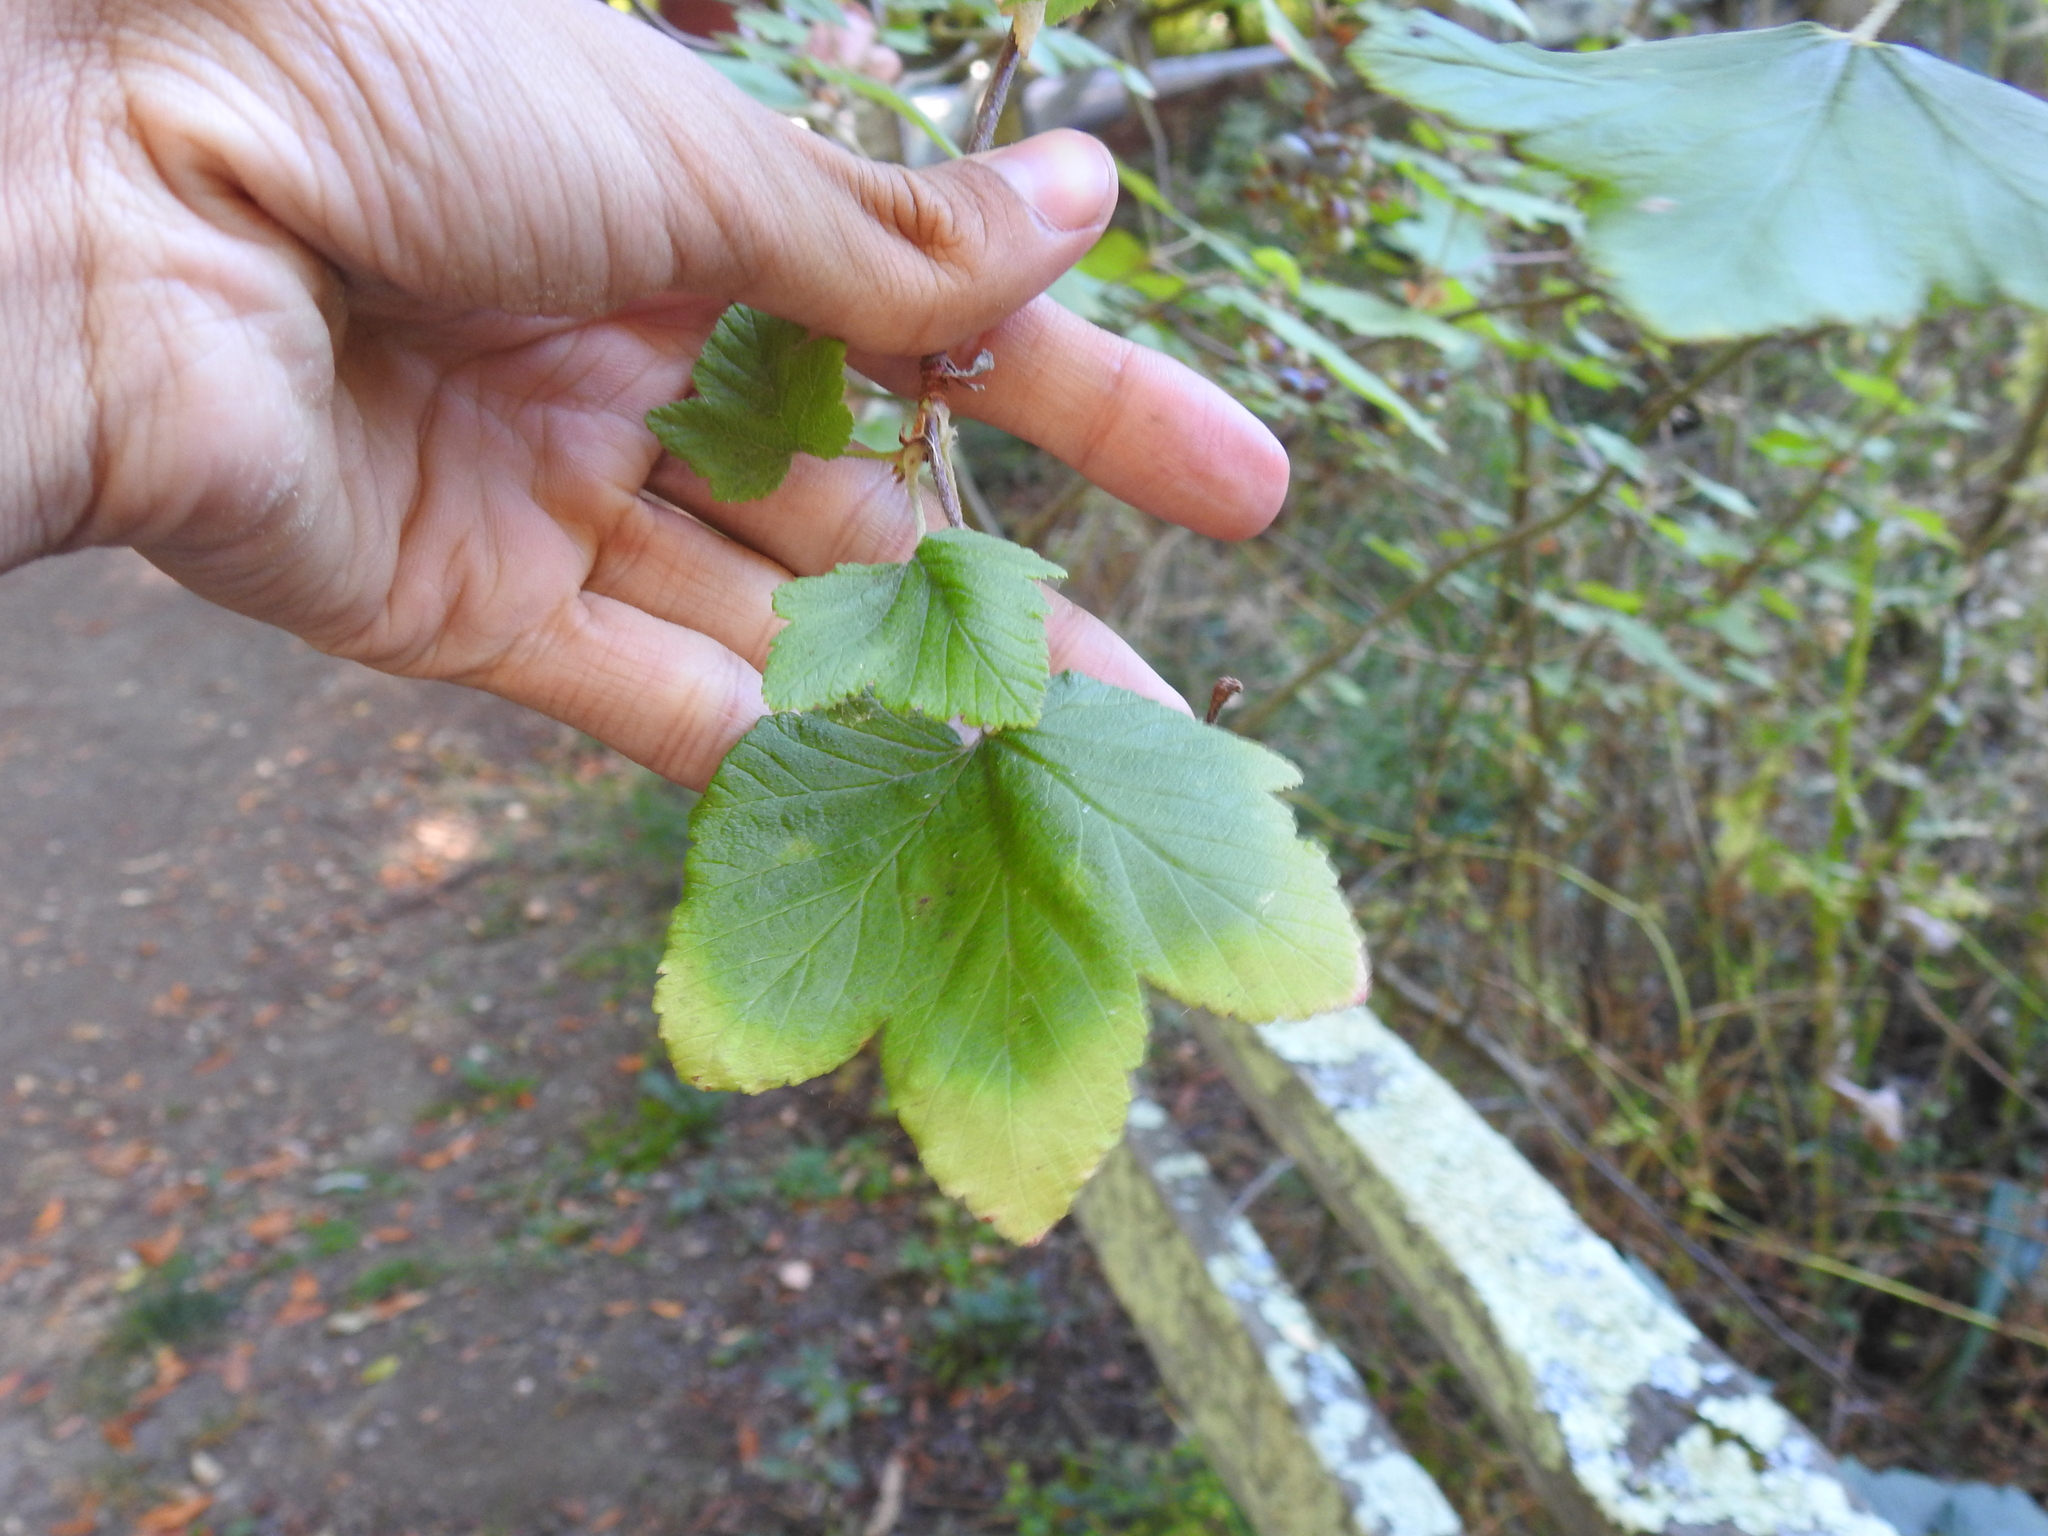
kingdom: Plantae
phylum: Tracheophyta
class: Magnoliopsida
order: Saxifragales
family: Grossulariaceae
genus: Ribes
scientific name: Ribes sanguineum
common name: Flowering currant
